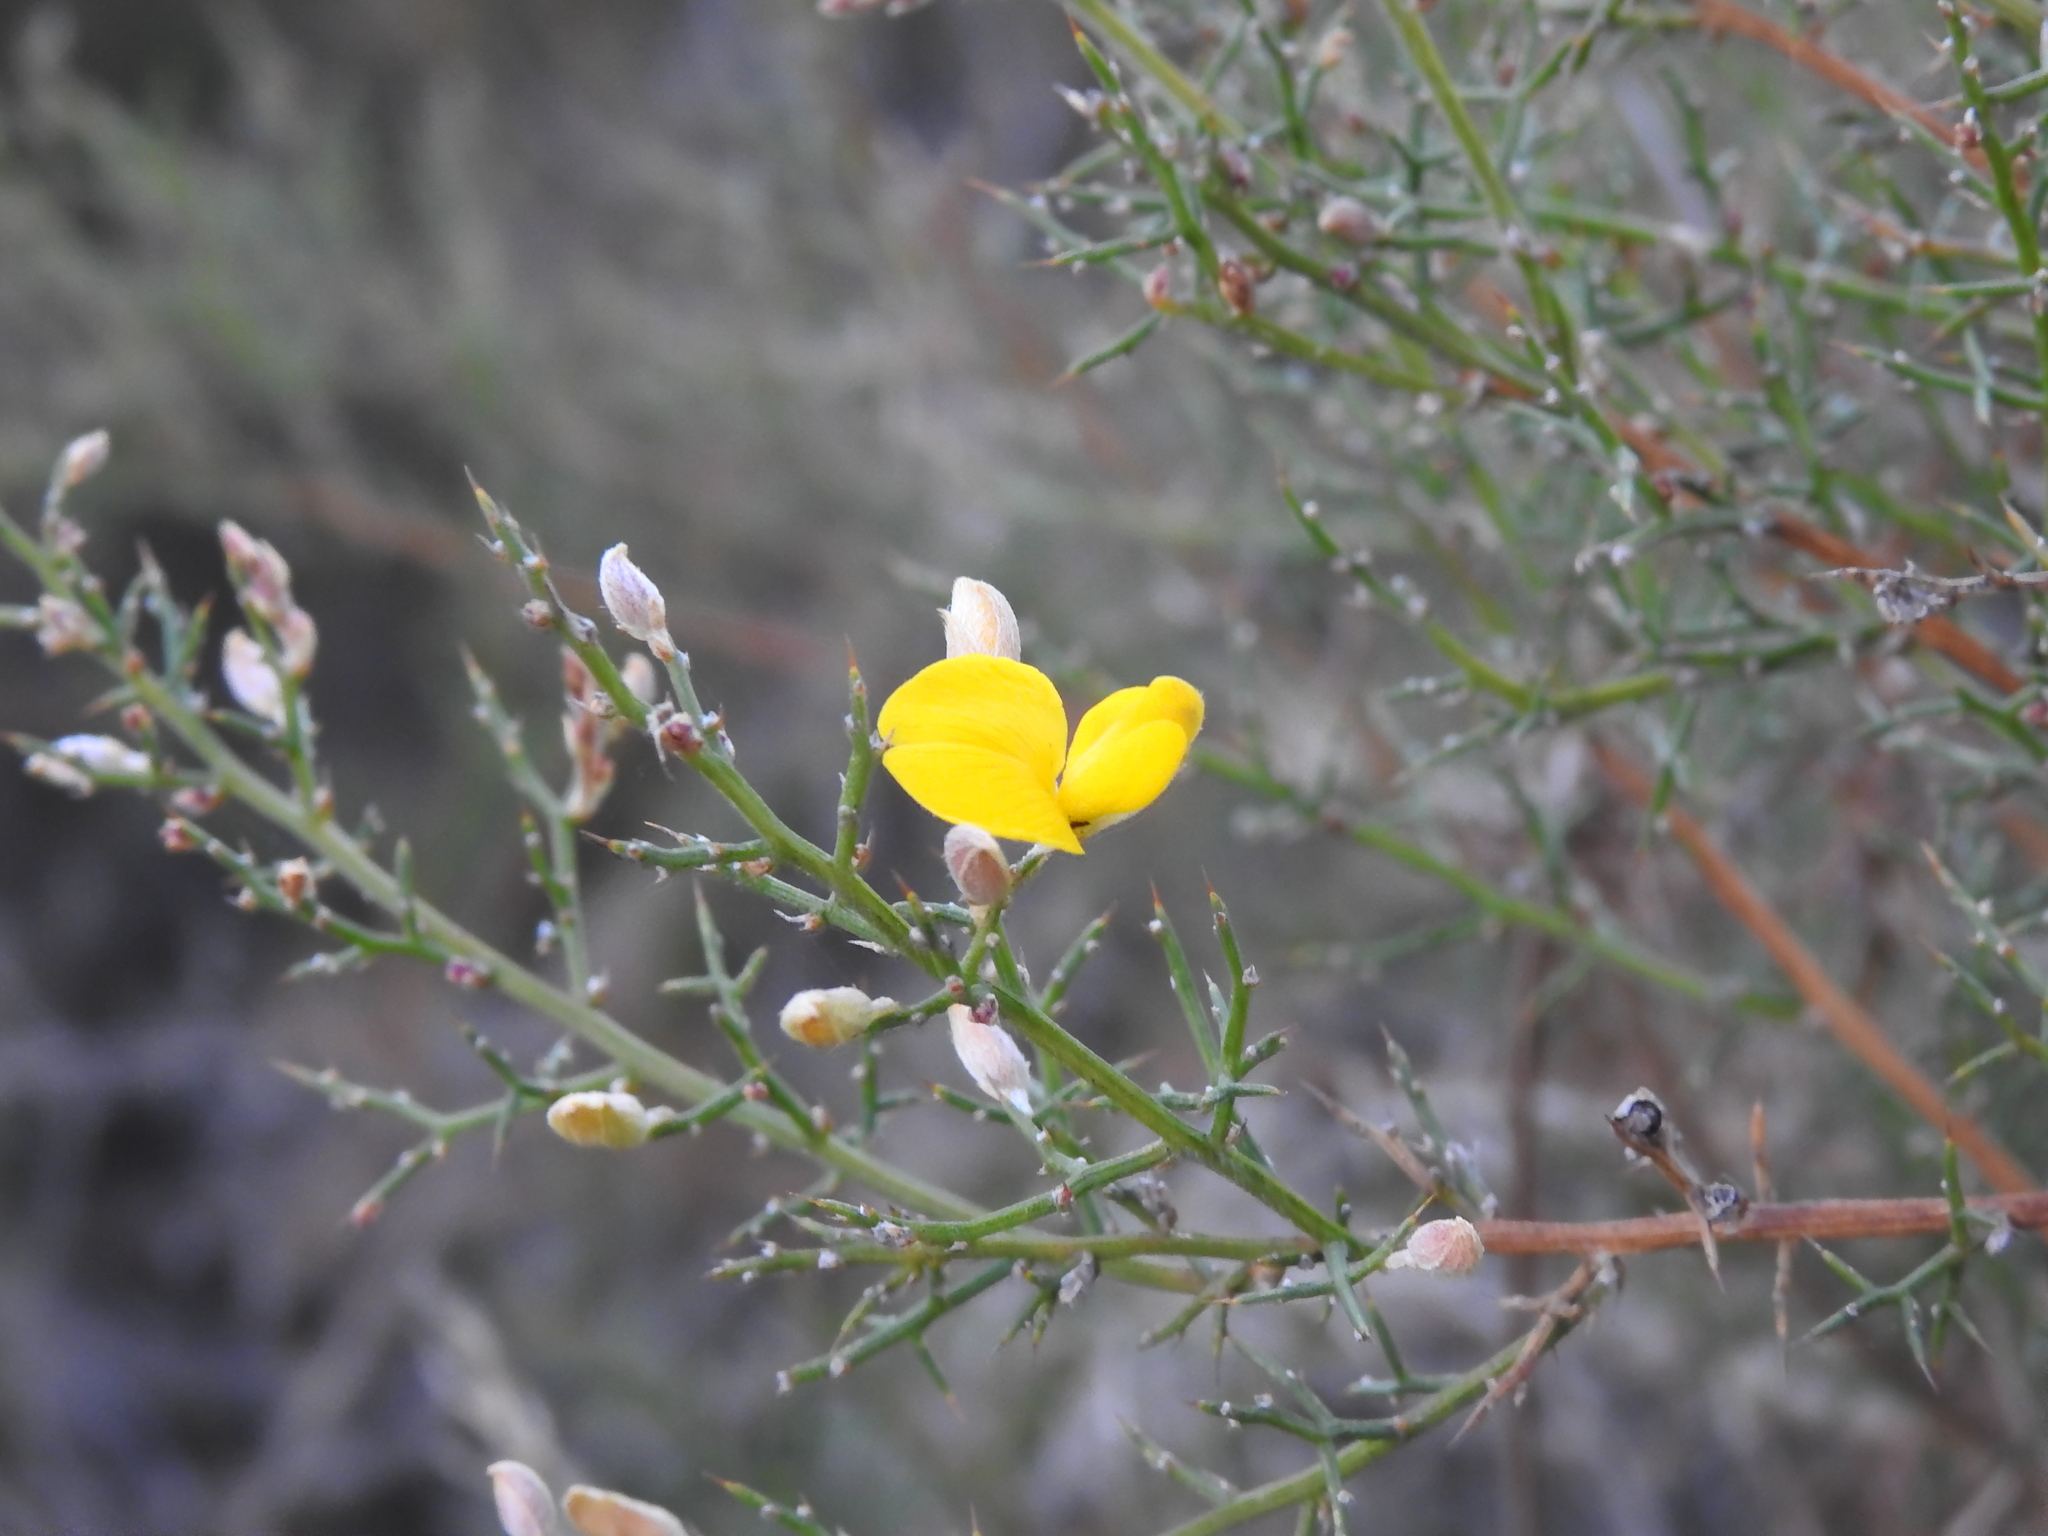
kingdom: Plantae
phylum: Tracheophyta
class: Magnoliopsida
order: Fabales
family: Fabaceae
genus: Stauracanthus
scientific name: Stauracanthus boivinii
